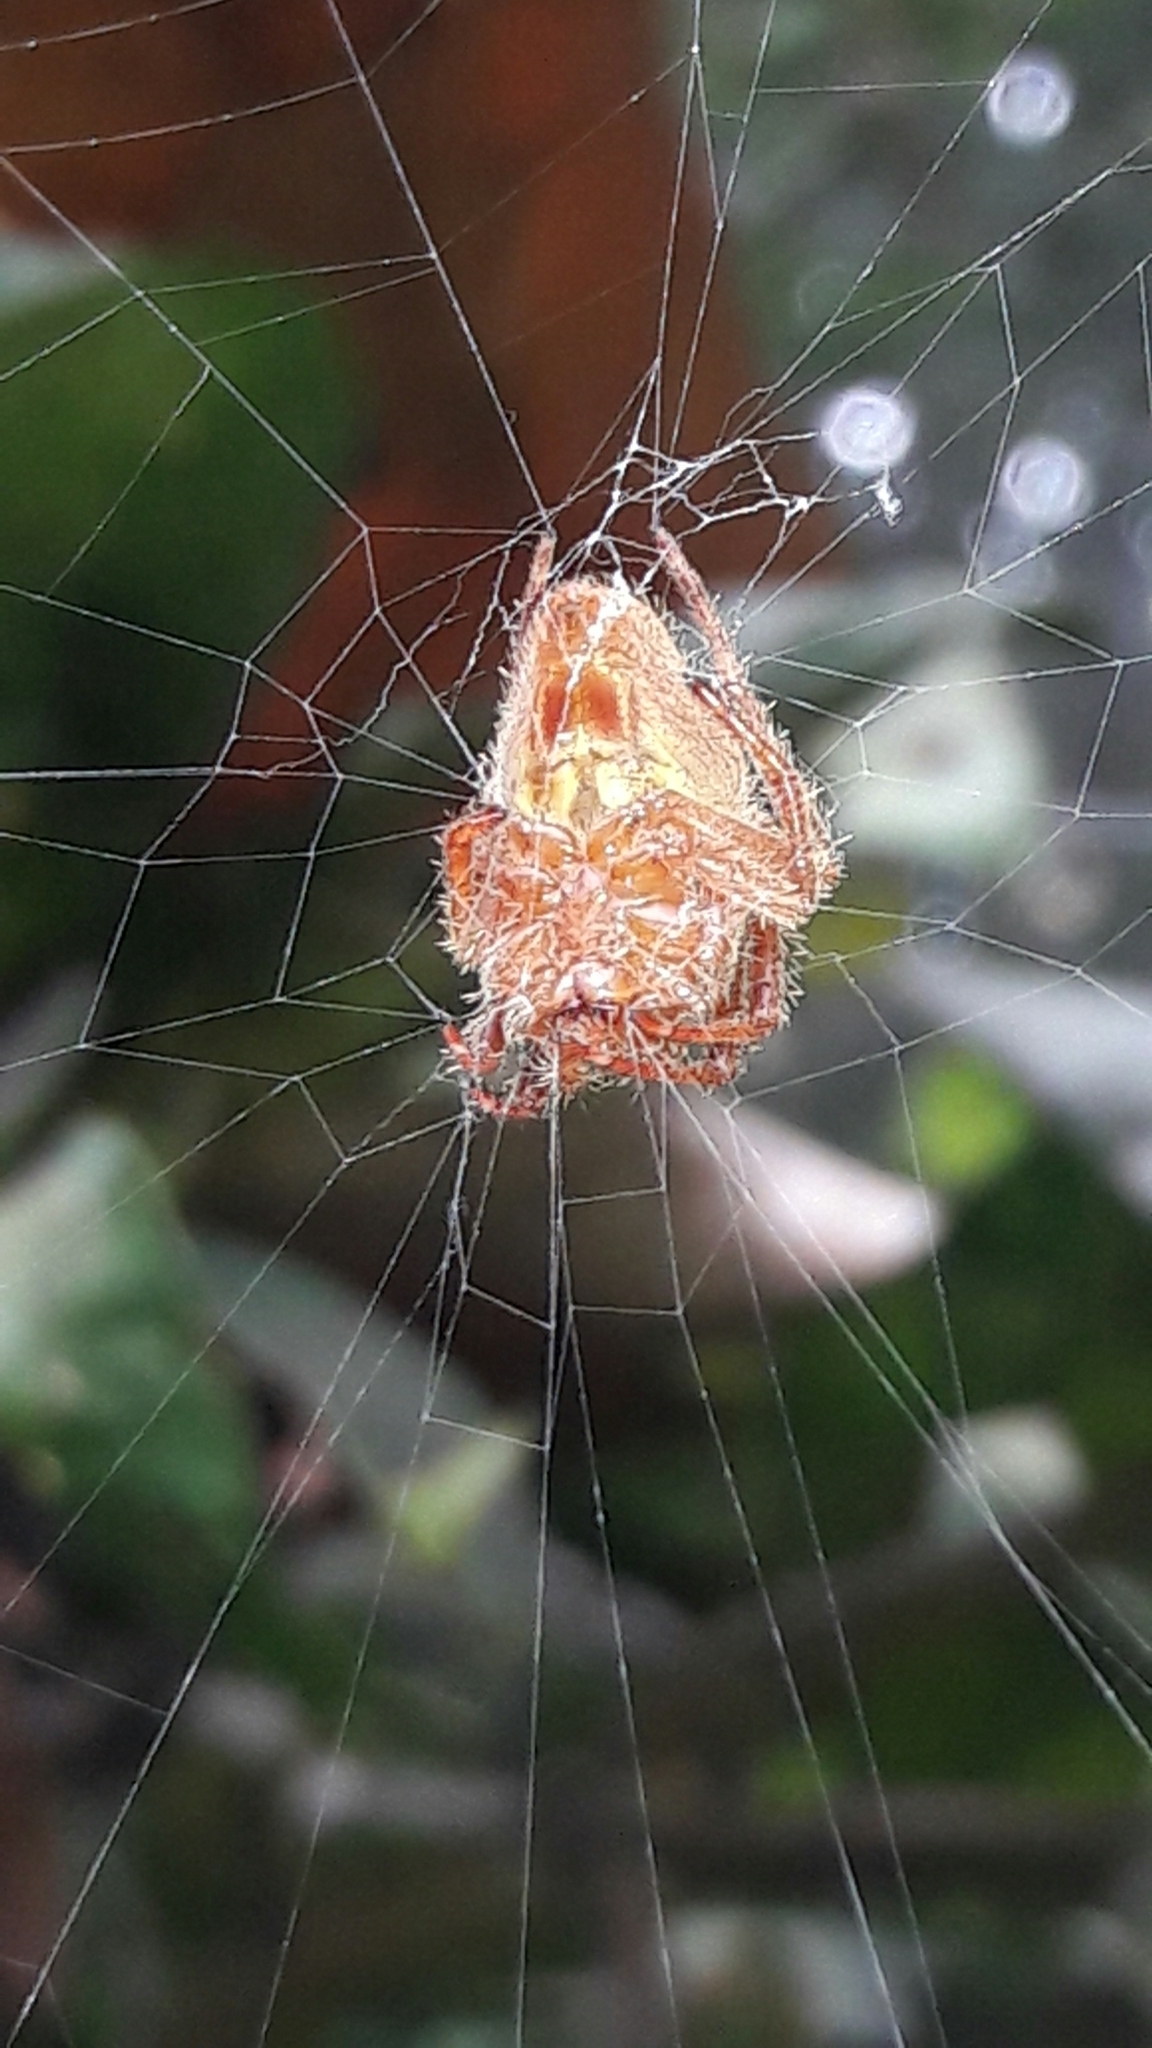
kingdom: Animalia
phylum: Arthropoda
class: Arachnida
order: Araneae
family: Araneidae
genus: Eriophora
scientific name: Eriophora edax
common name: Orb weavers
